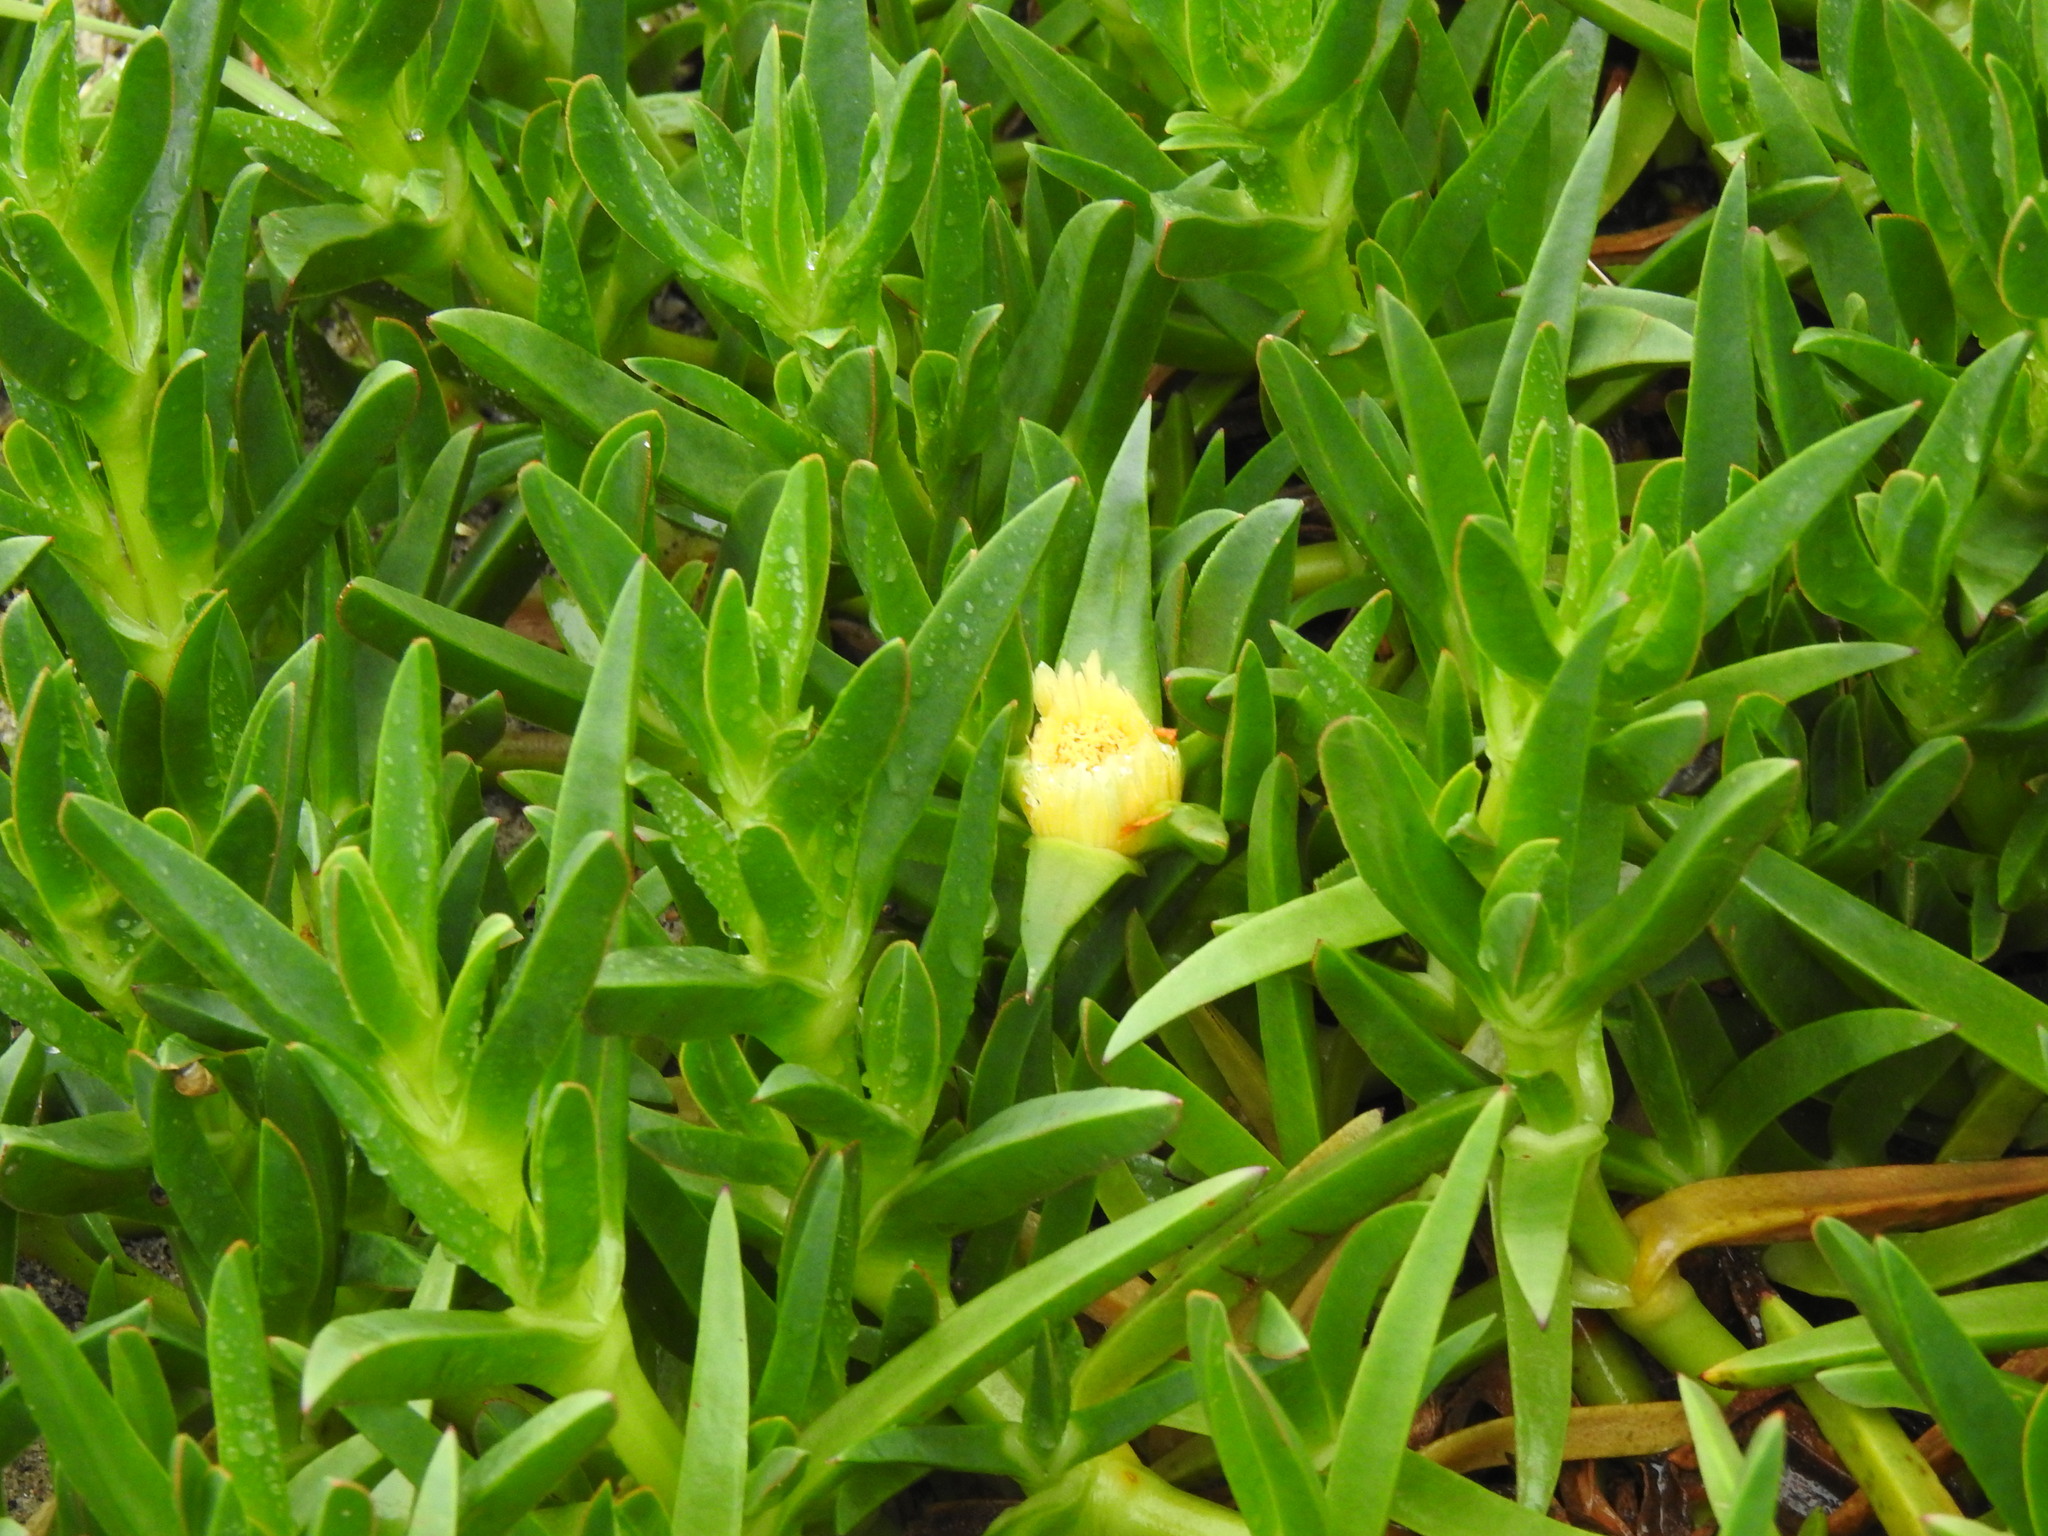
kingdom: Plantae
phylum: Tracheophyta
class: Magnoliopsida
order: Caryophyllales
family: Aizoaceae
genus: Carpobrotus
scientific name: Carpobrotus edulis
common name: Hottentot-fig
